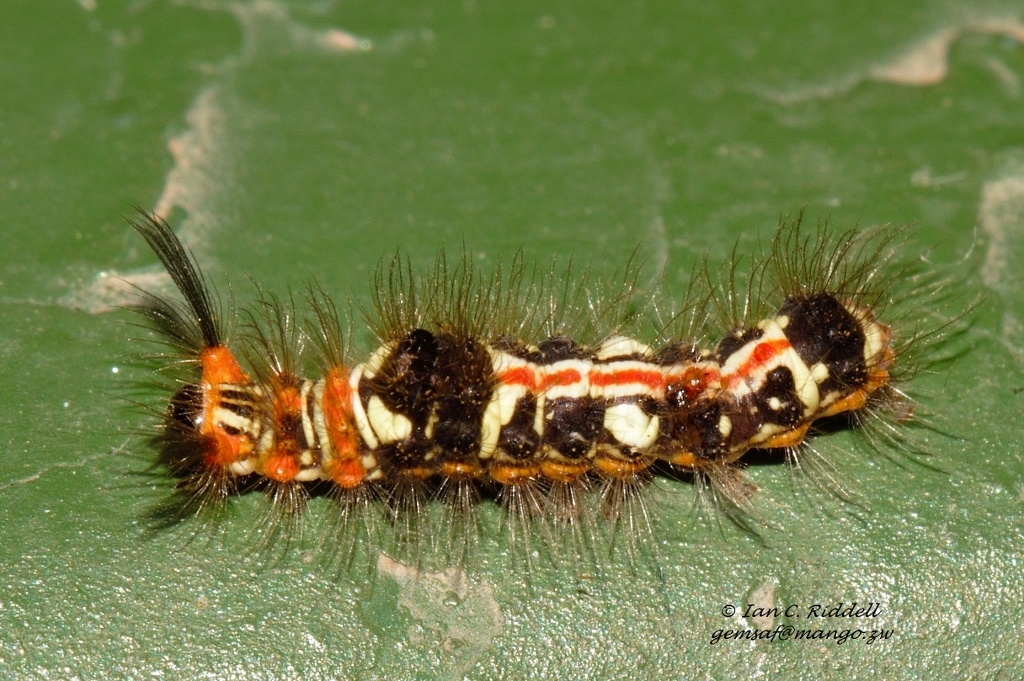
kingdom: Animalia
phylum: Arthropoda
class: Insecta
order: Lepidoptera
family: Erebidae
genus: Euproctis
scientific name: Euproctis aethiopica
